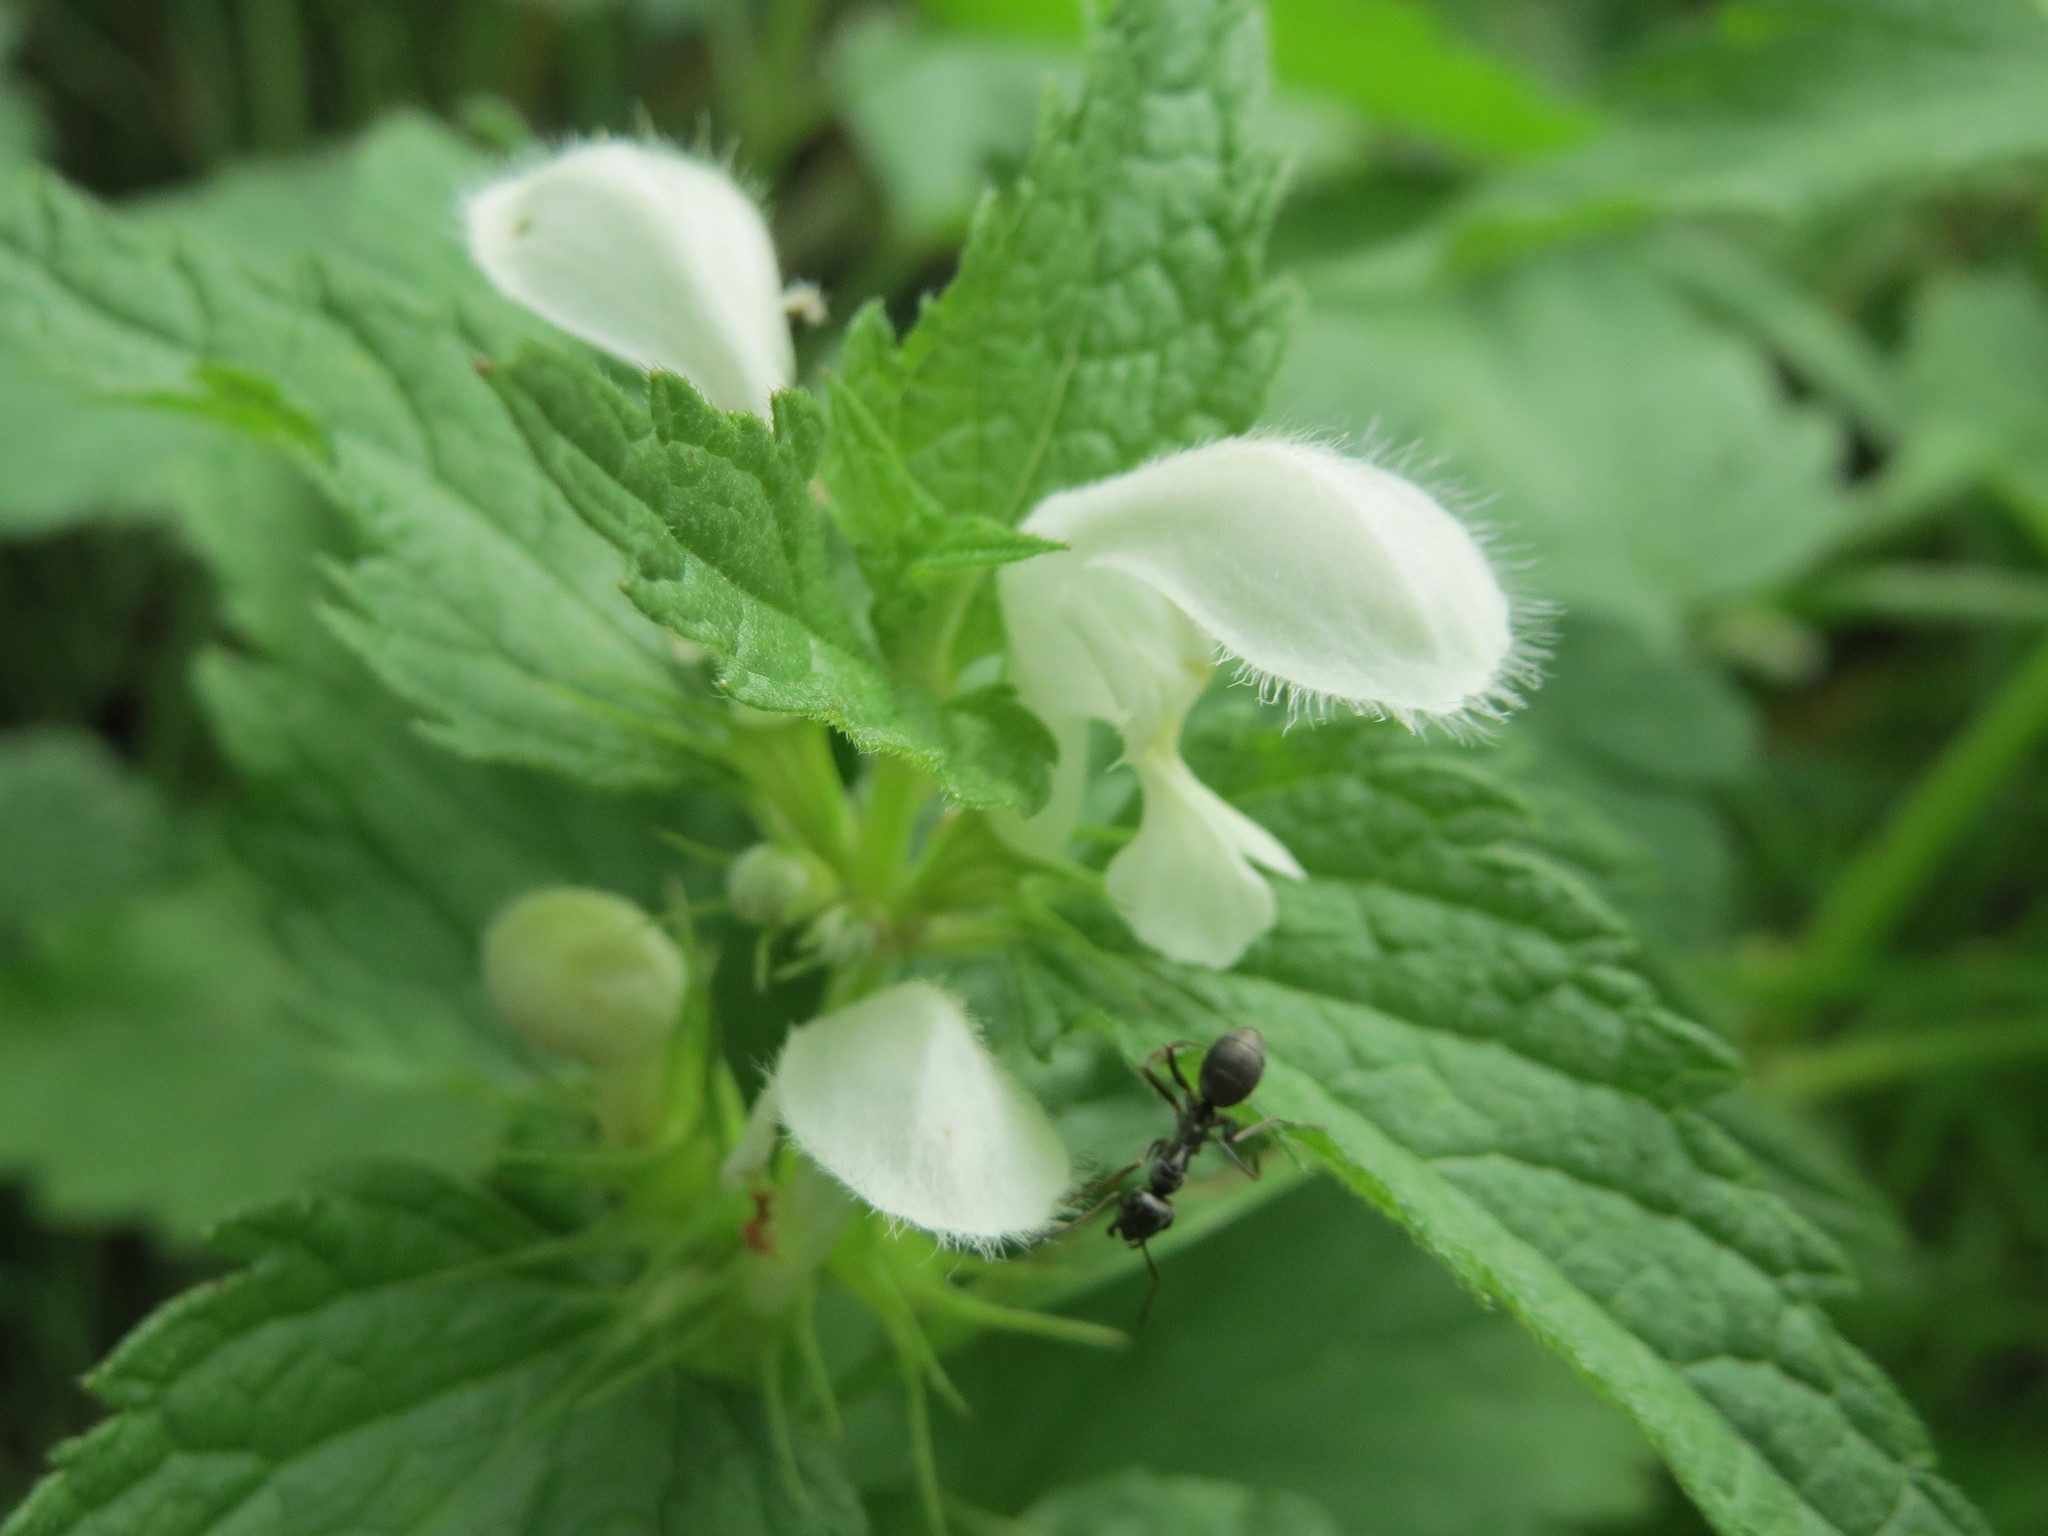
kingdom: Plantae
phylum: Tracheophyta
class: Magnoliopsida
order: Lamiales
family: Lamiaceae
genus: Lamium
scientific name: Lamium album
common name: White dead-nettle
